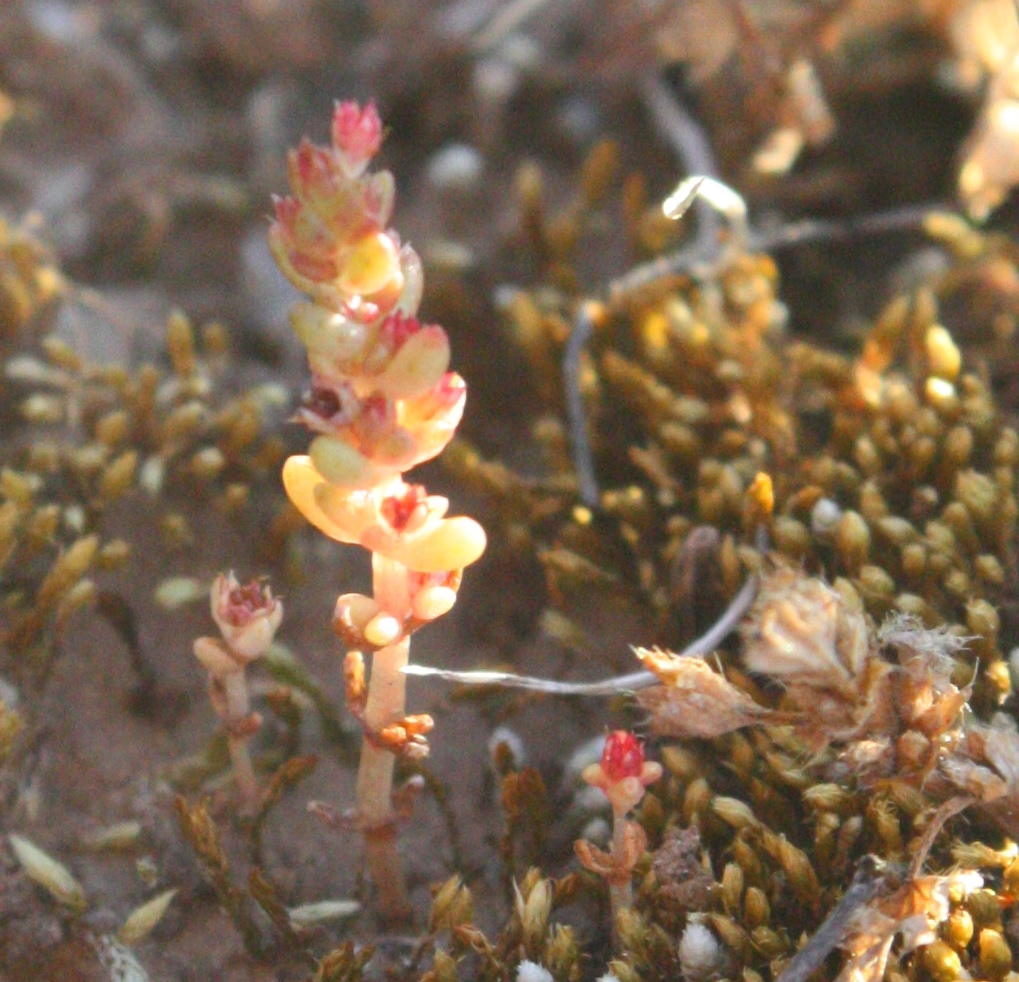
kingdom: Plantae
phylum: Tracheophyta
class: Magnoliopsida
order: Saxifragales
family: Crassulaceae
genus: Crassula
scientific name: Crassula connata
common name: Erect pygmyweed
